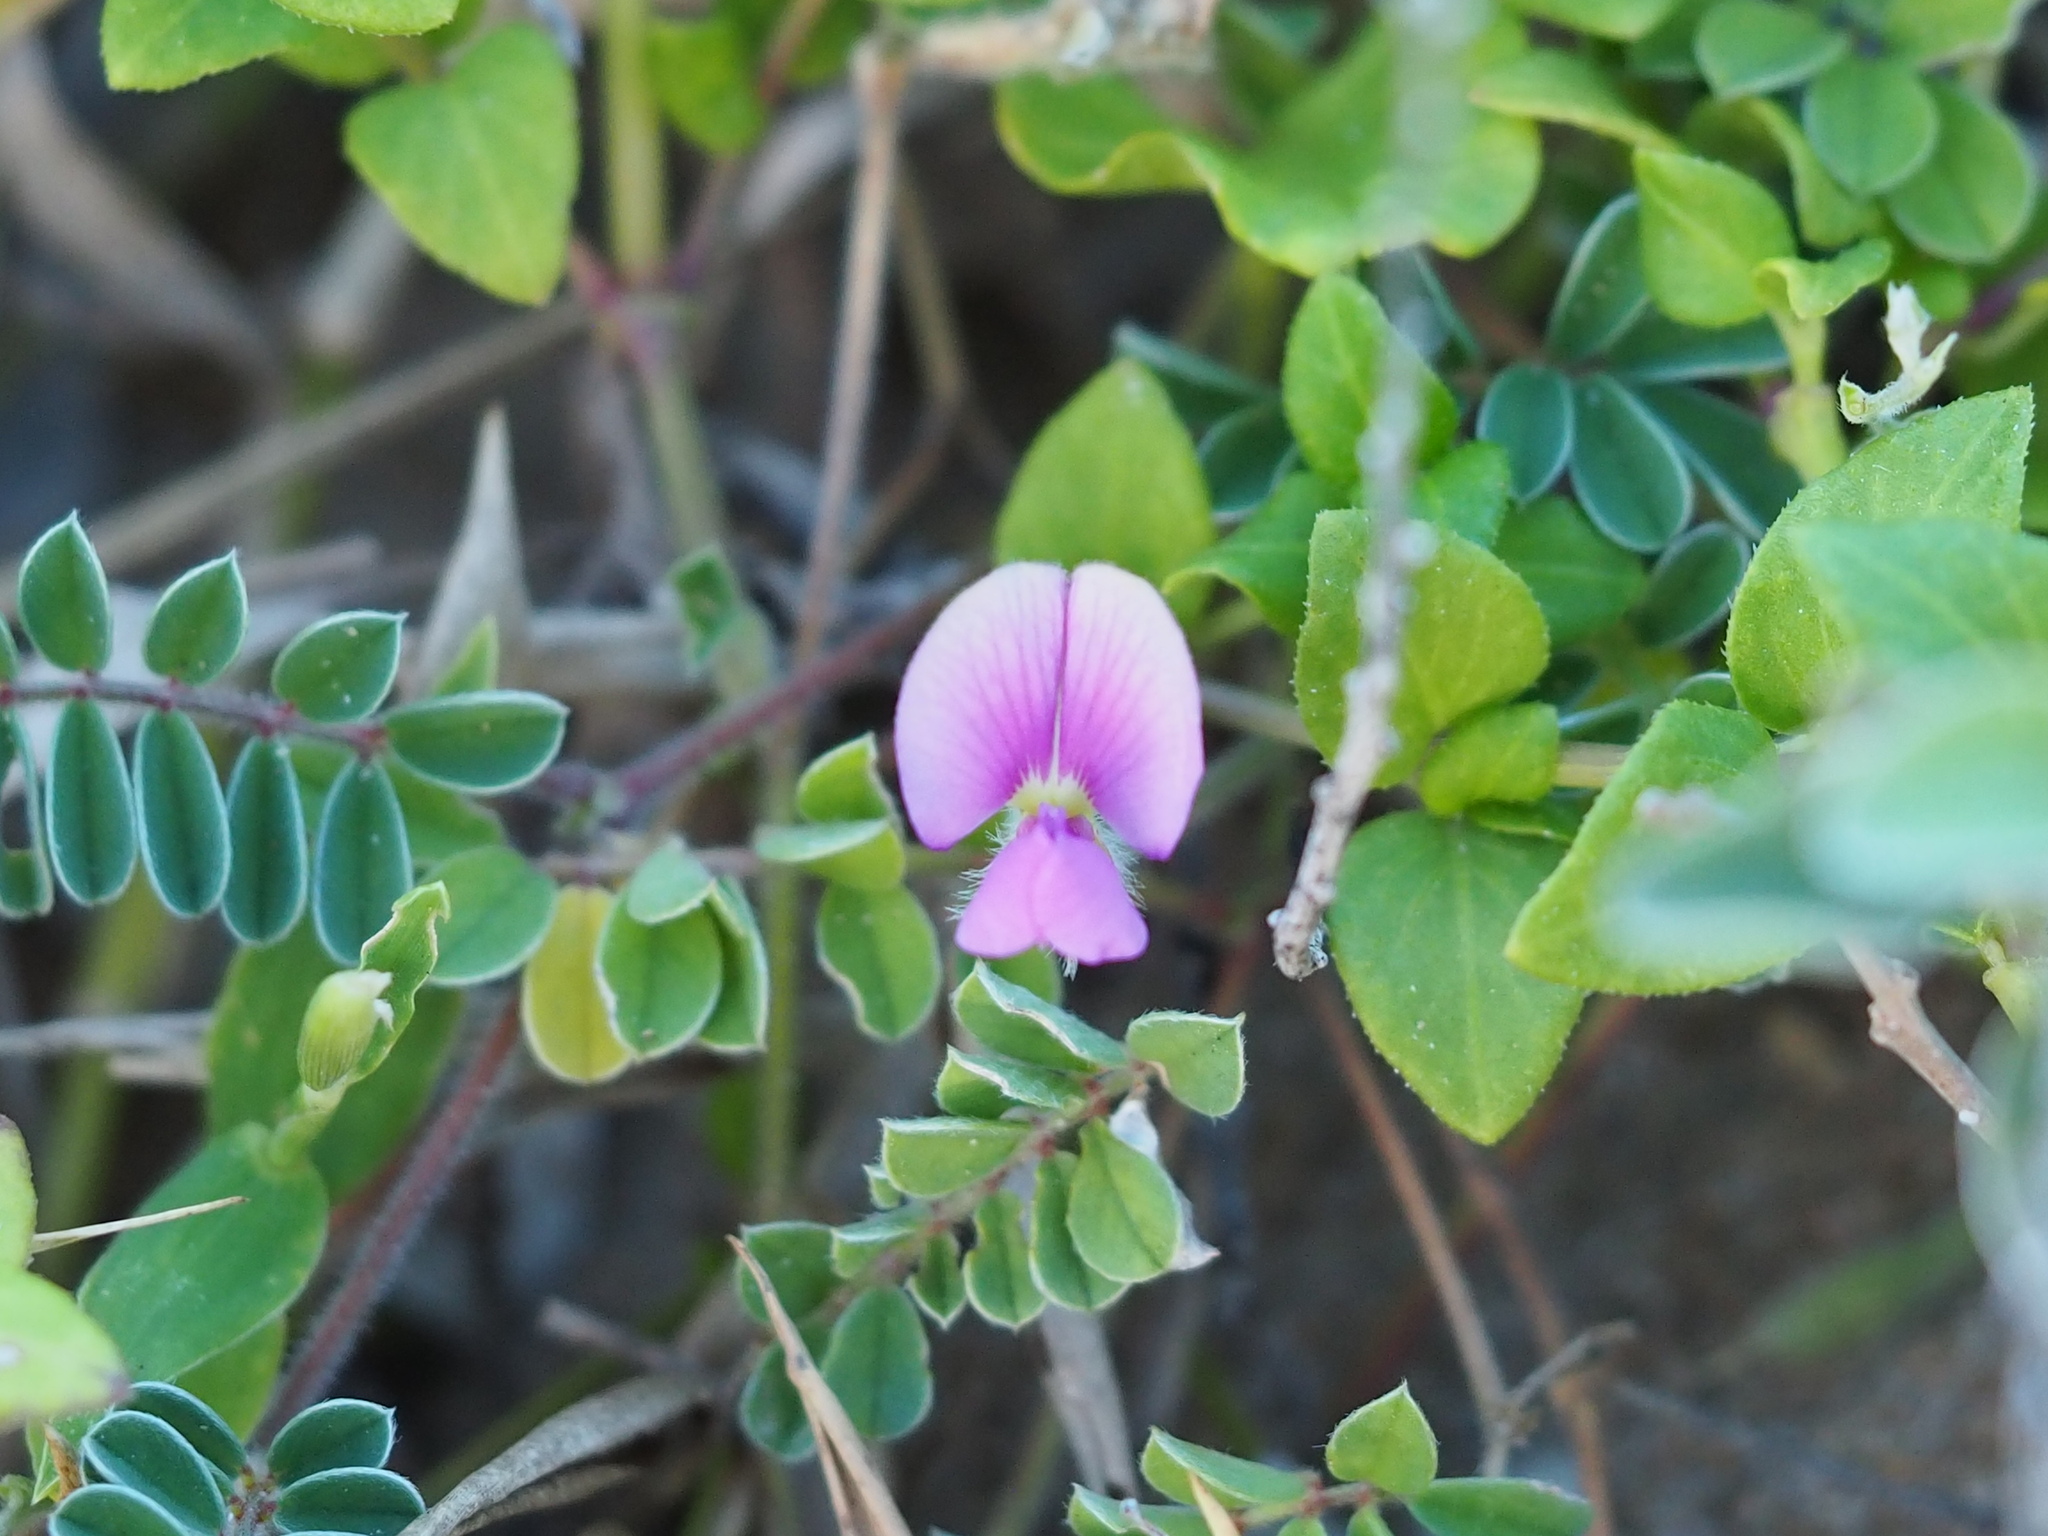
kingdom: Plantae
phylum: Tracheophyta
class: Magnoliopsida
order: Fabales
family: Fabaceae
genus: Tephrosia
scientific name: Tephrosia obovata
